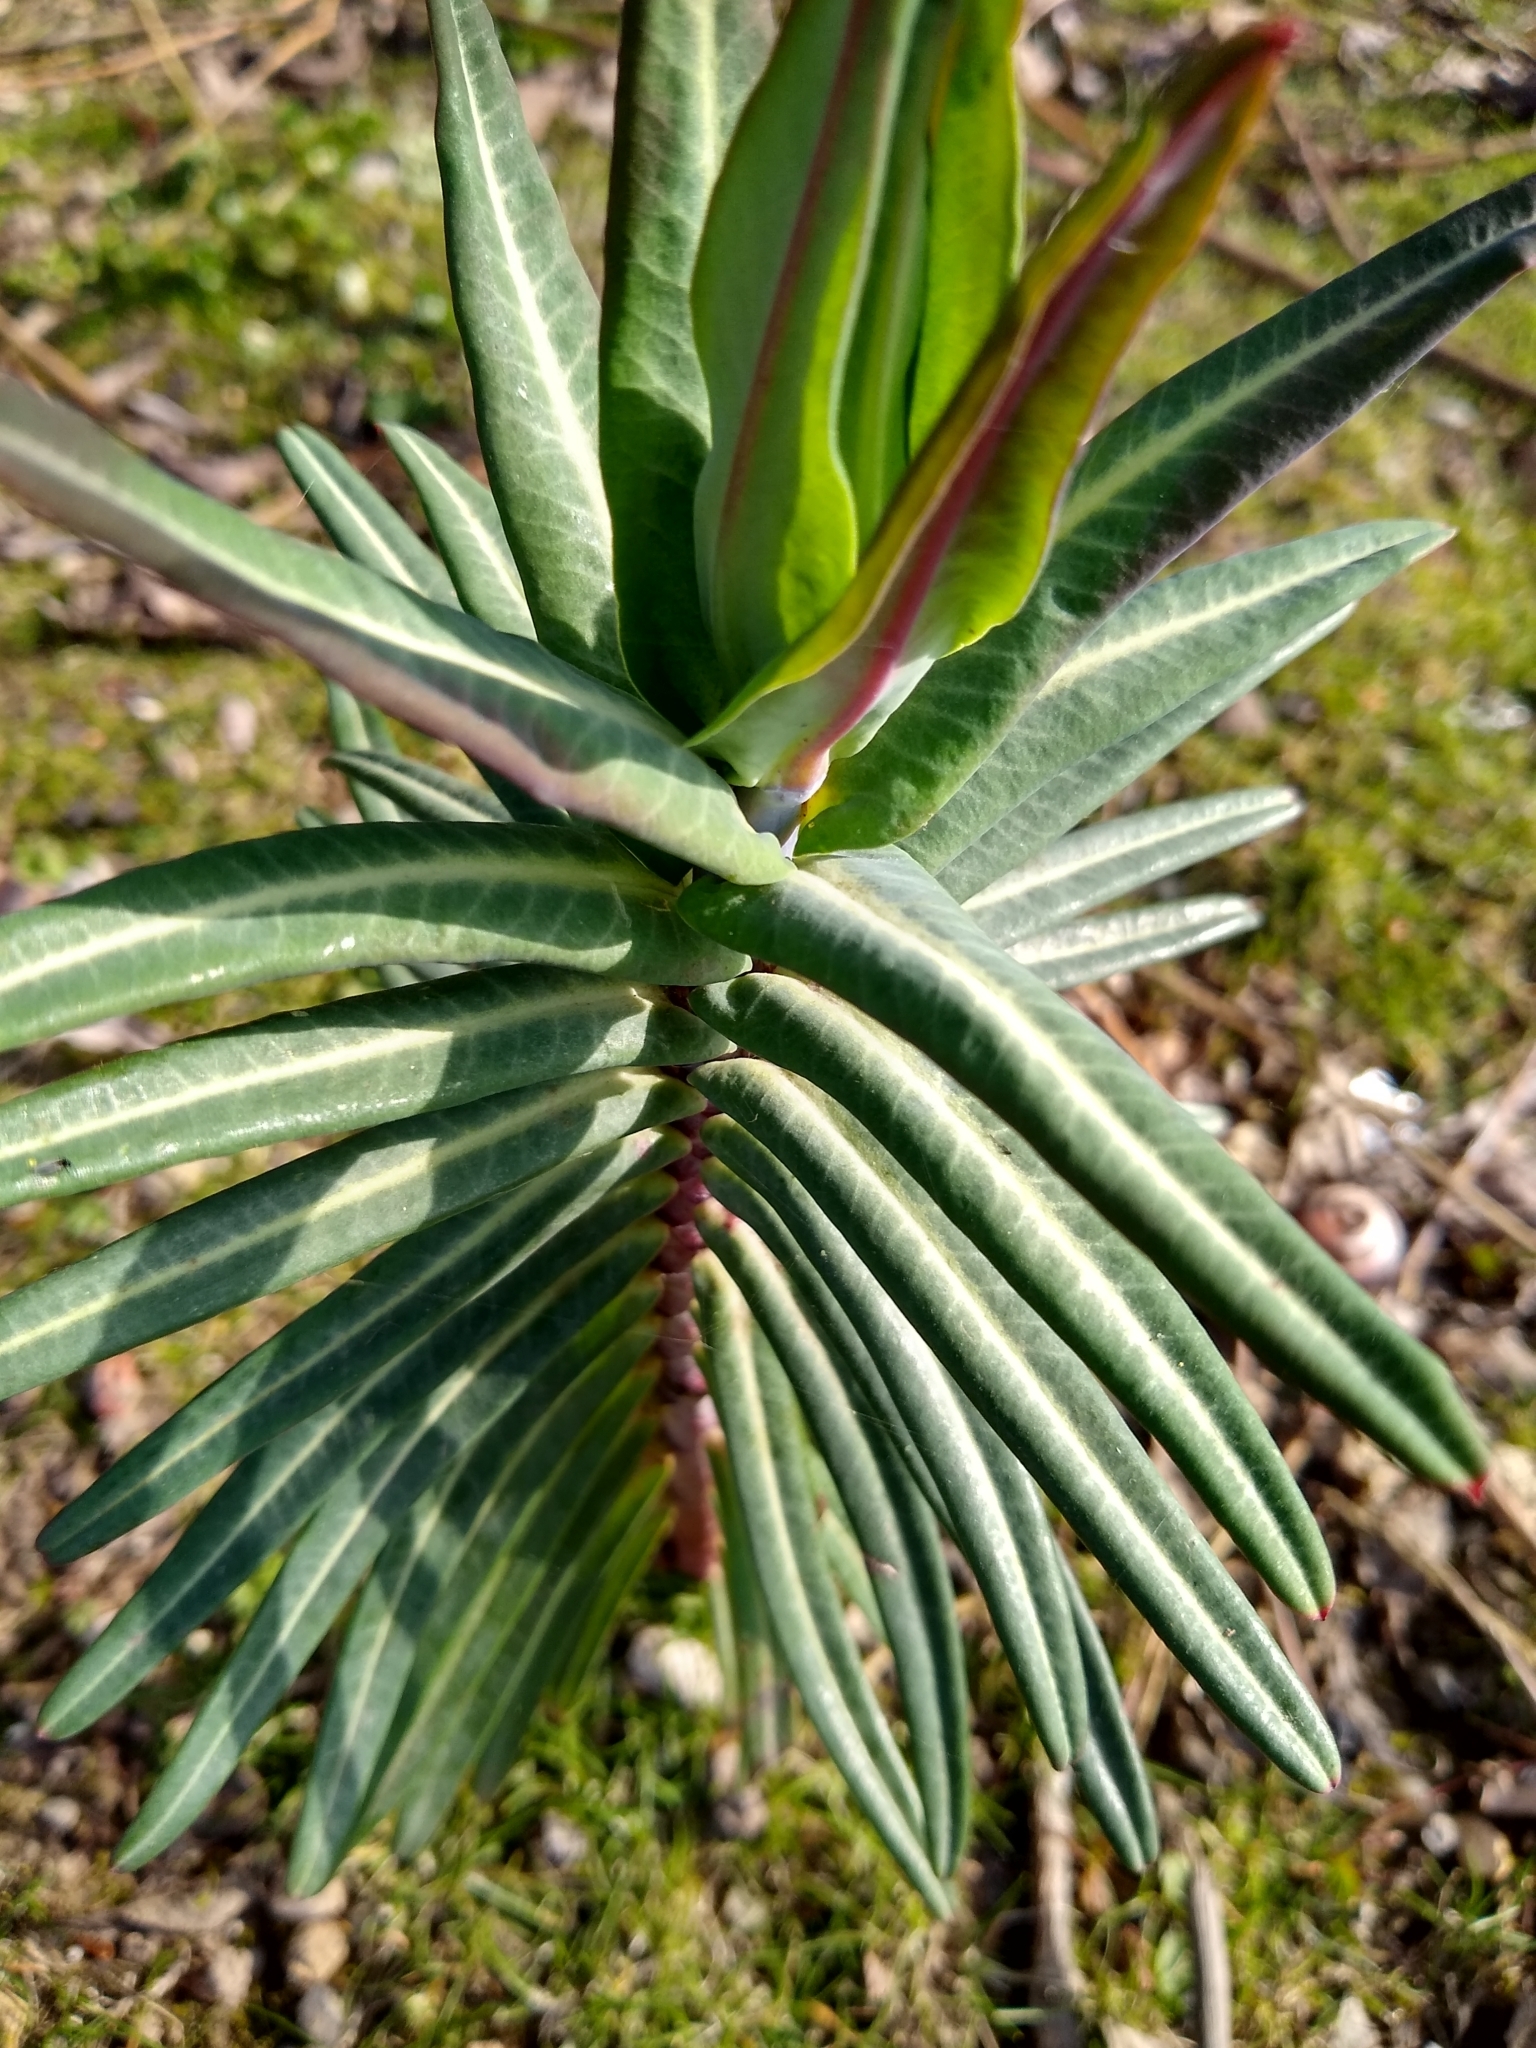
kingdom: Plantae
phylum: Tracheophyta
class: Magnoliopsida
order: Malpighiales
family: Euphorbiaceae
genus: Euphorbia
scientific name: Euphorbia lathyris
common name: Caper spurge
